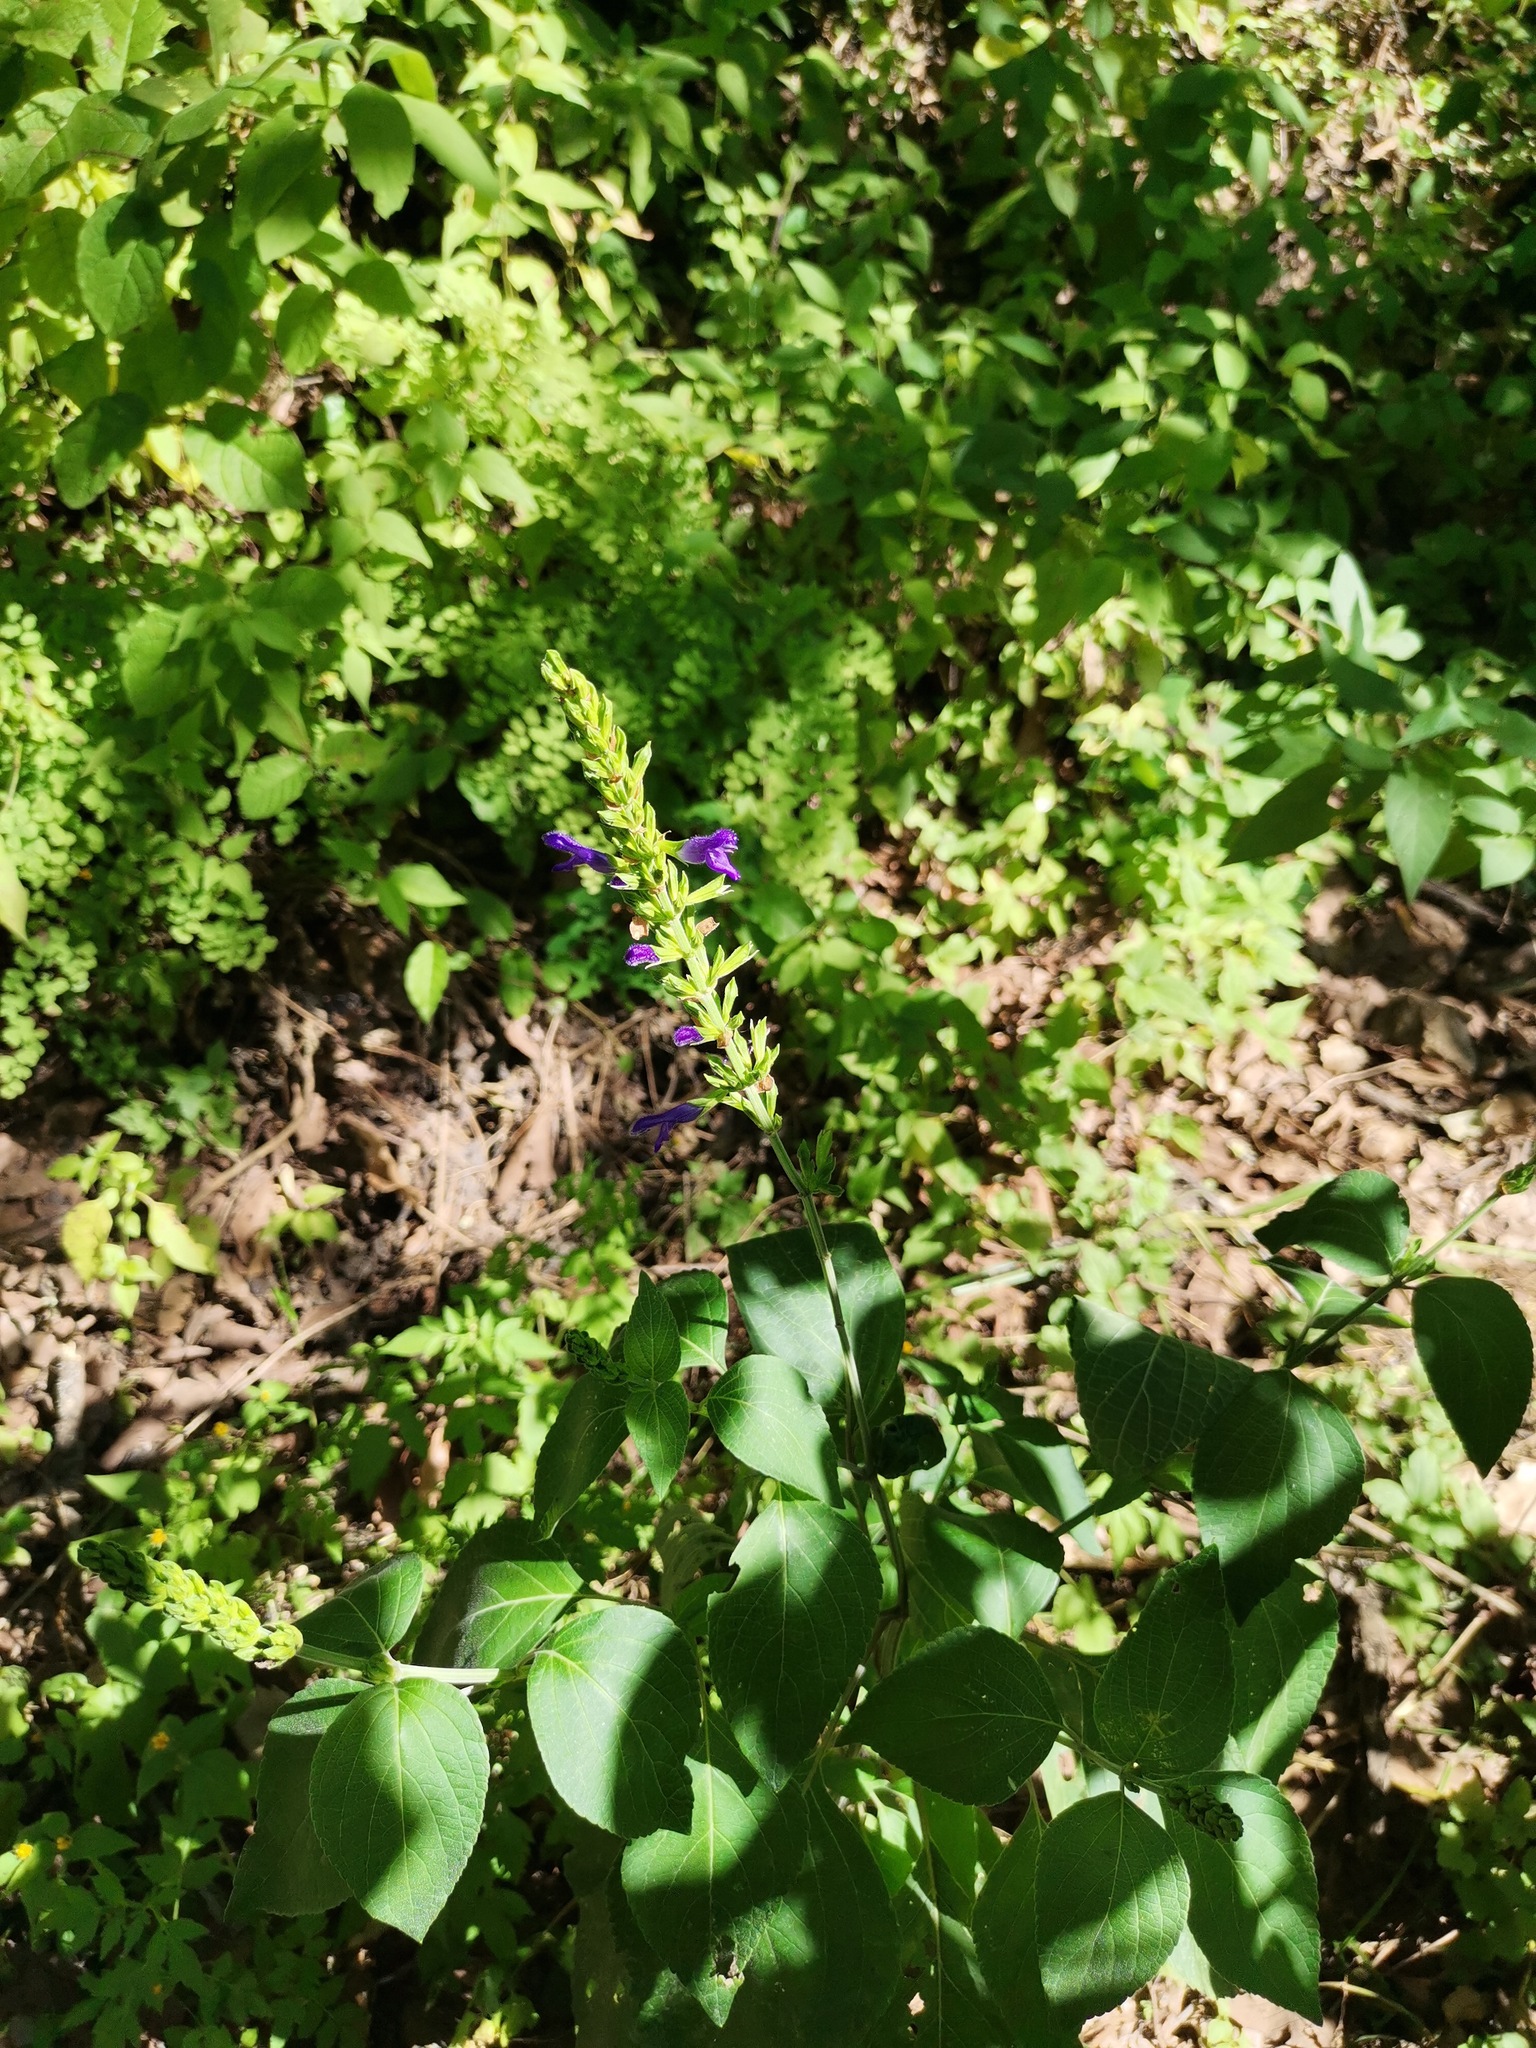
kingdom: Plantae
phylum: Tracheophyta
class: Magnoliopsida
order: Lamiales
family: Lamiaceae
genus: Salvia
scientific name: Salvia mexicana
